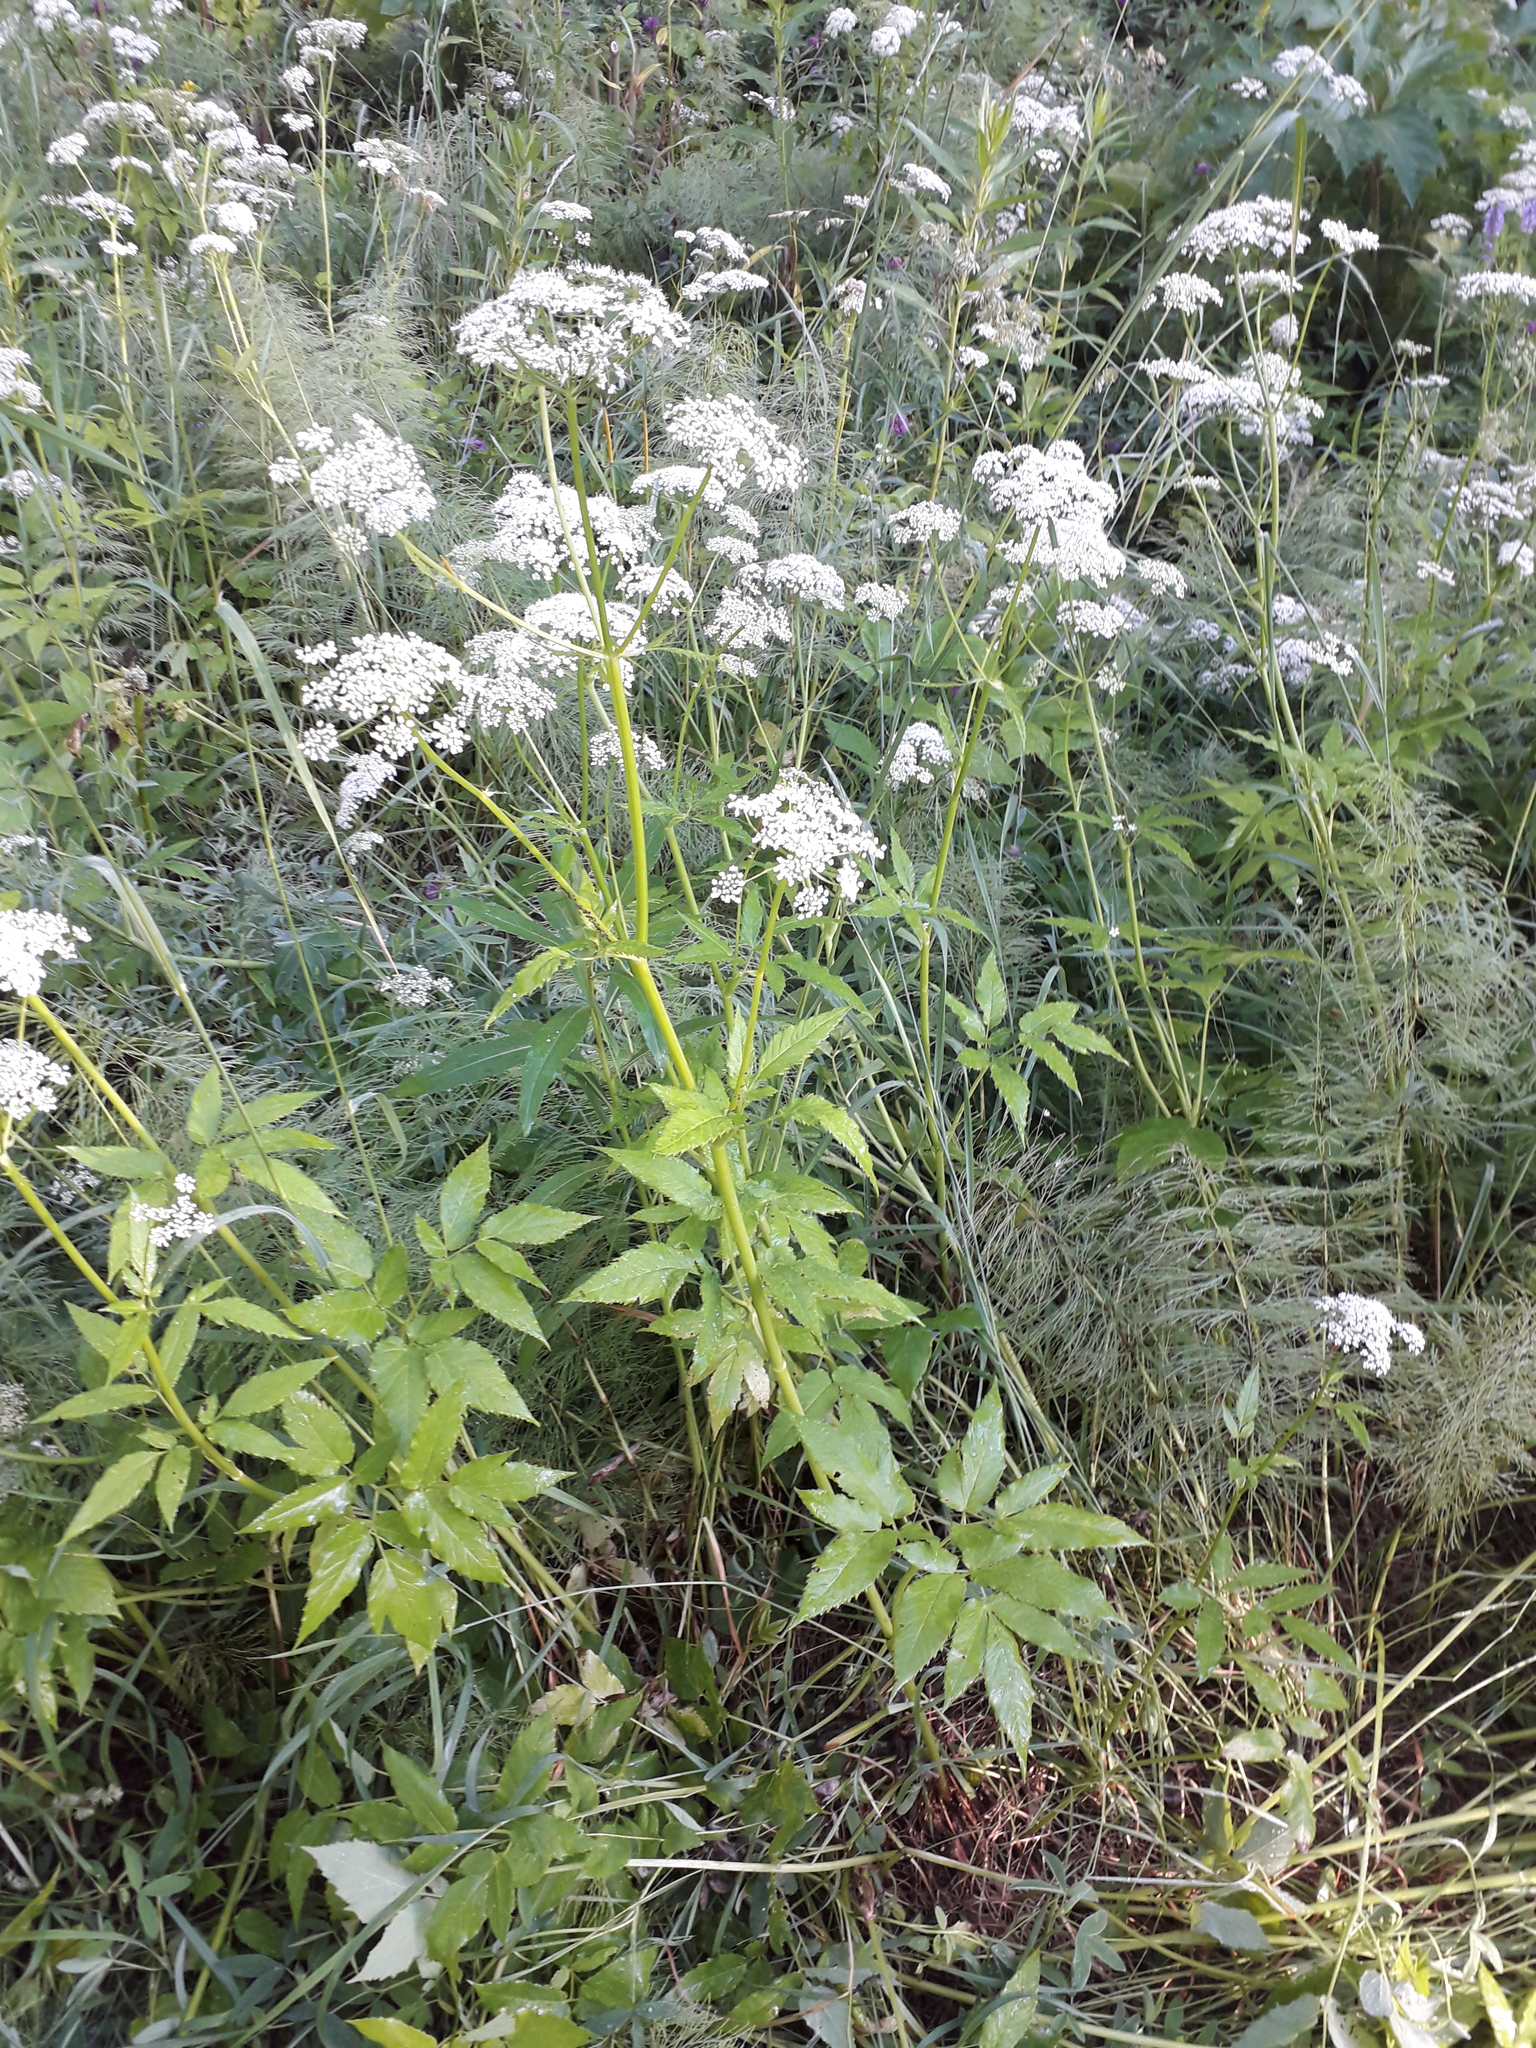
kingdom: Plantae
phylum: Tracheophyta
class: Magnoliopsida
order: Apiales
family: Apiaceae
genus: Aegopodium
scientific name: Aegopodium podagraria
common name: Ground-elder
